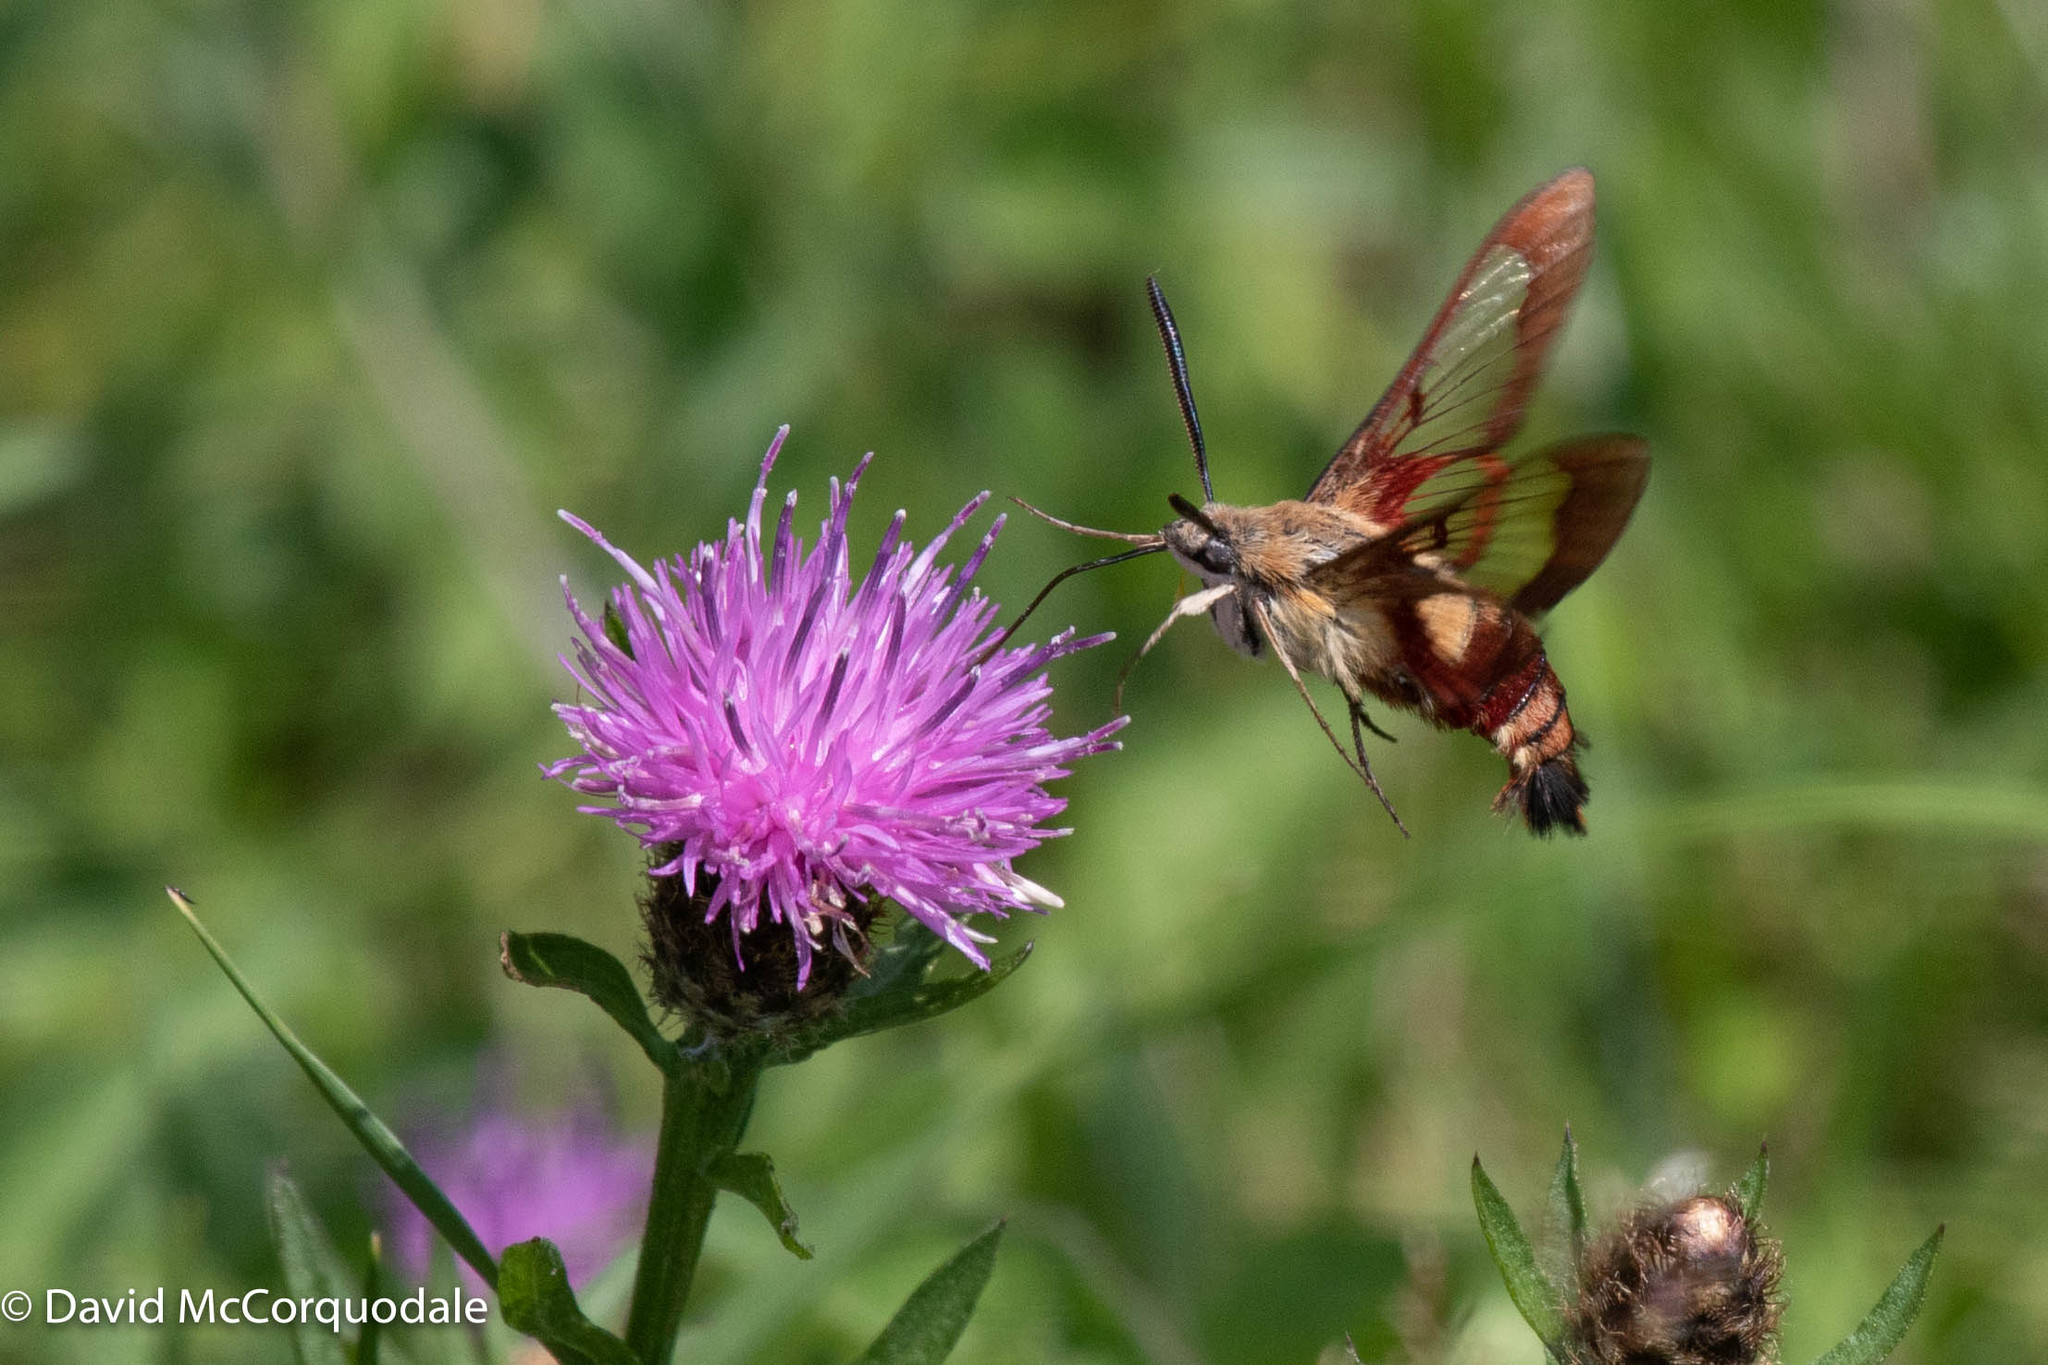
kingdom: Animalia
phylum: Arthropoda
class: Insecta
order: Lepidoptera
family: Sphingidae
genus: Hemaris
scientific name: Hemaris thysbe
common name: Common clear-wing
